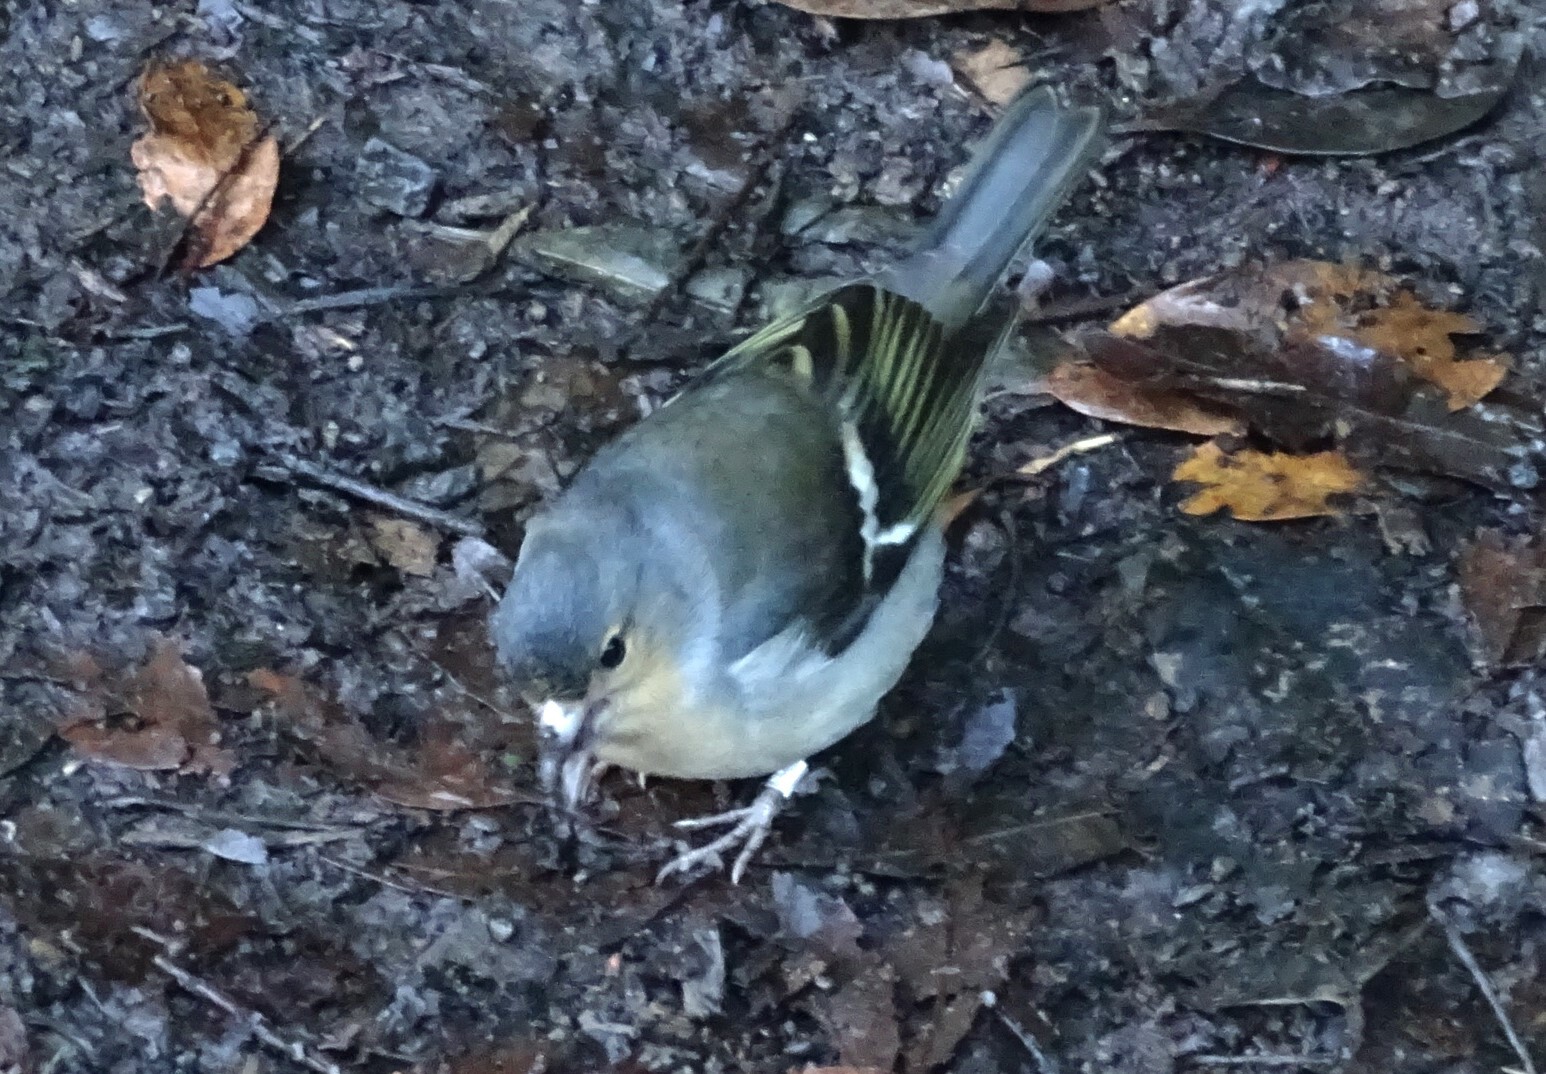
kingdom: Animalia
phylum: Chordata
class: Aves
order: Passeriformes
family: Fringillidae
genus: Fringilla
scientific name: Fringilla canariensis
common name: Canary islands chaffinch
